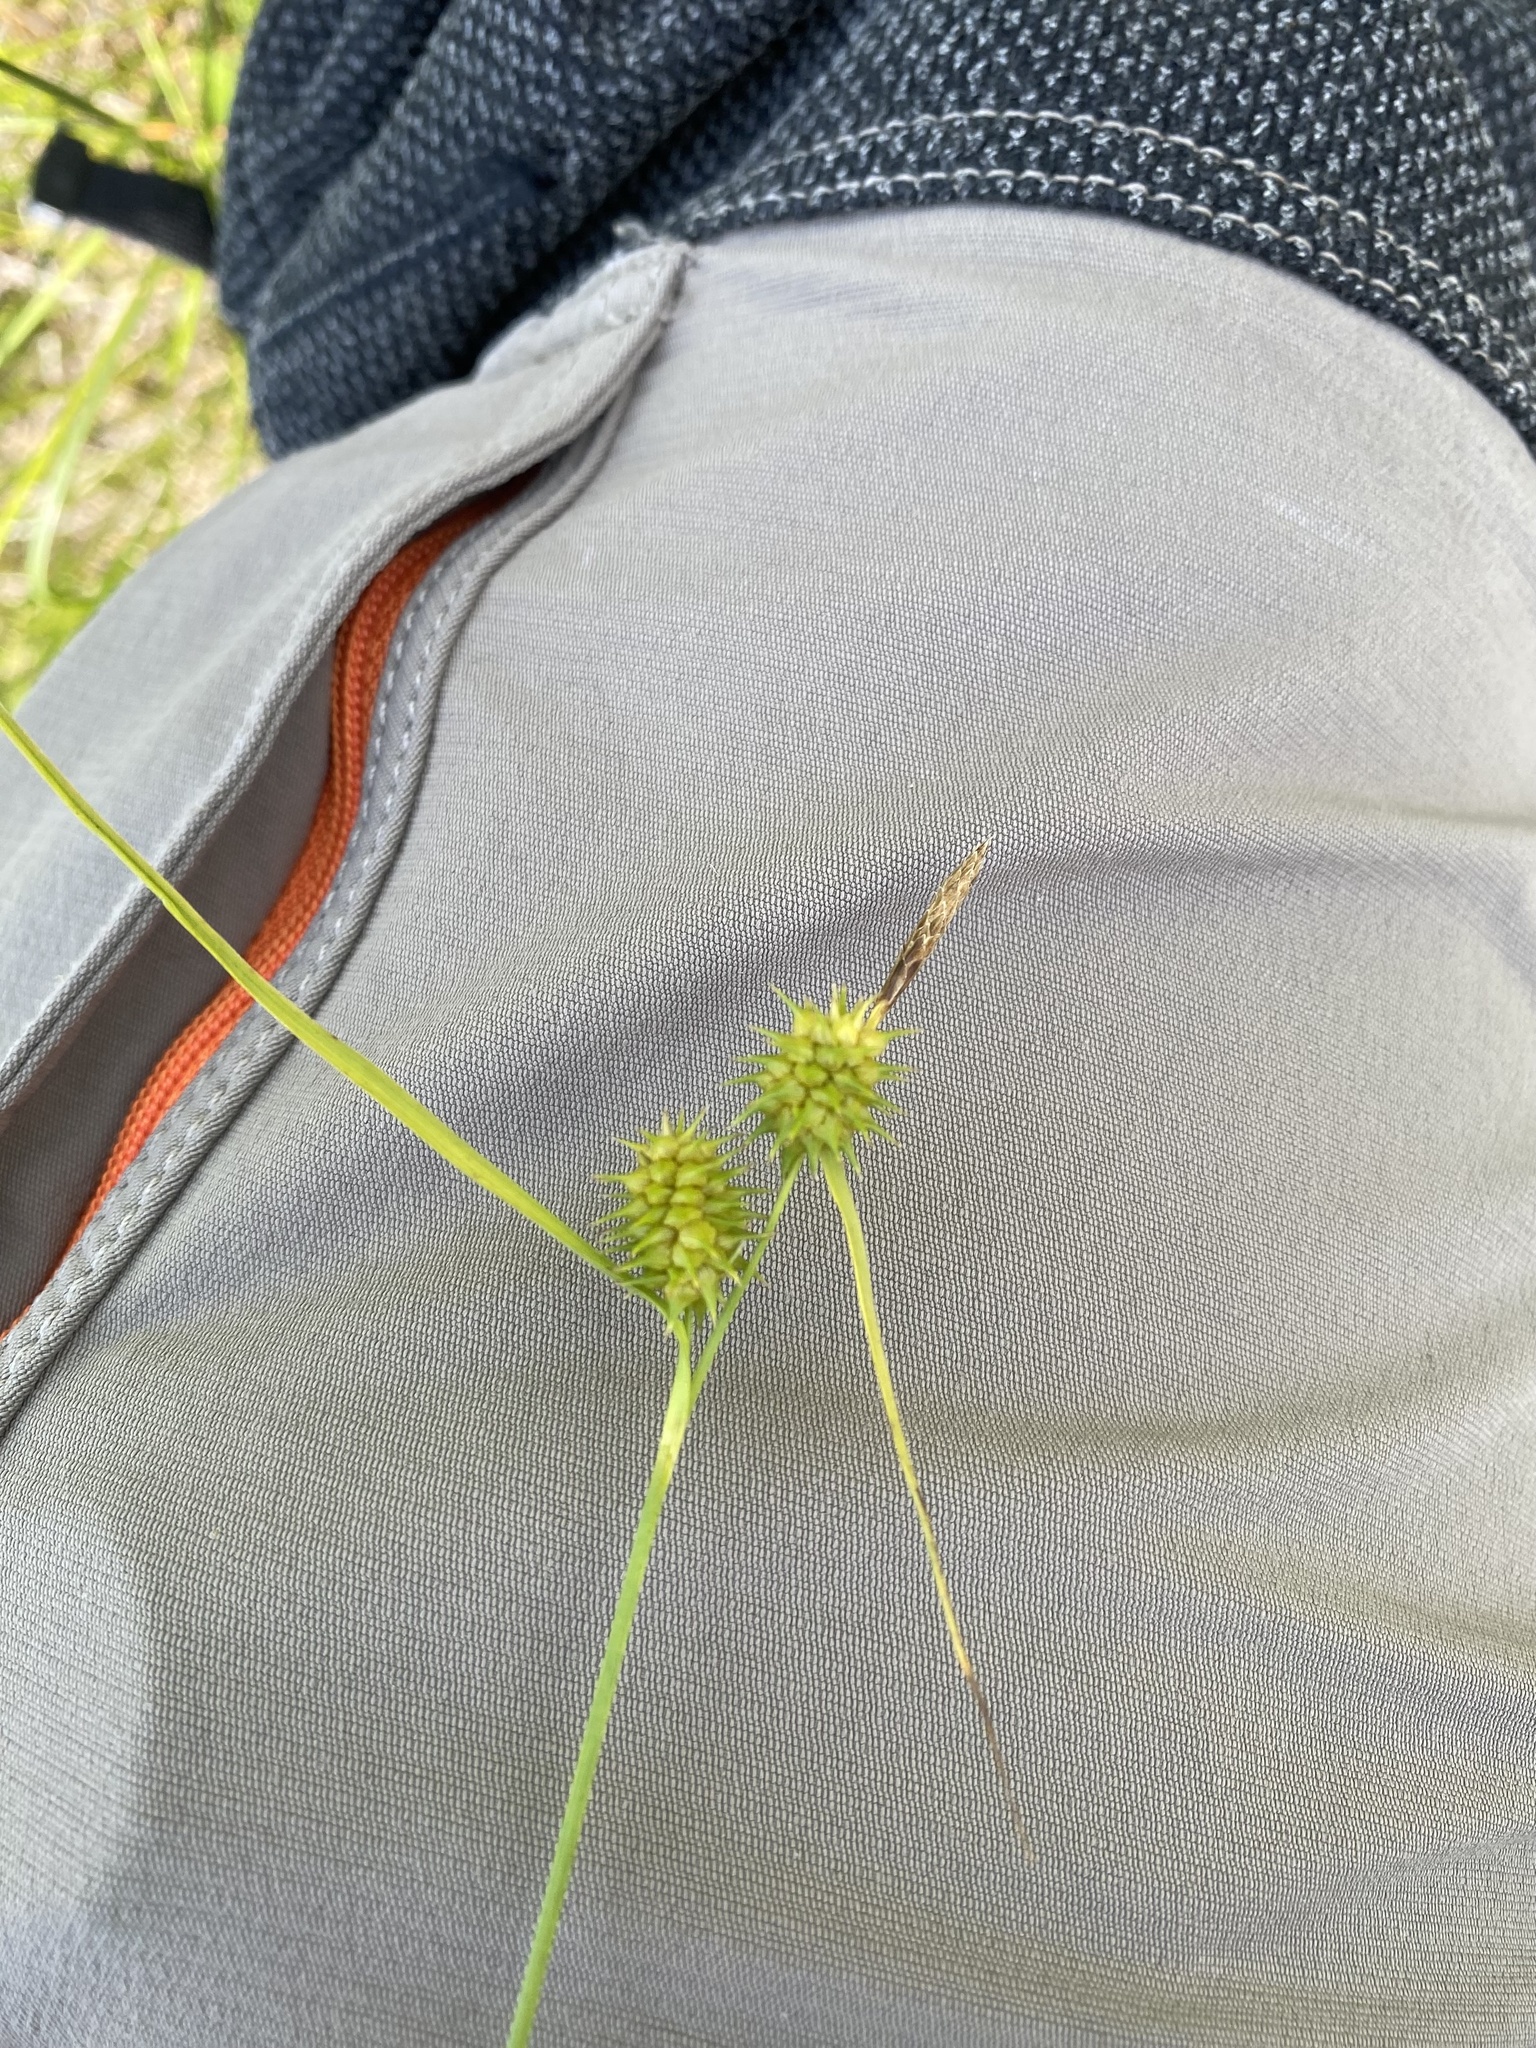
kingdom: Plantae
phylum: Tracheophyta
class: Liliopsida
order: Poales
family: Cyperaceae
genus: Carex
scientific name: Carex viridistellata
